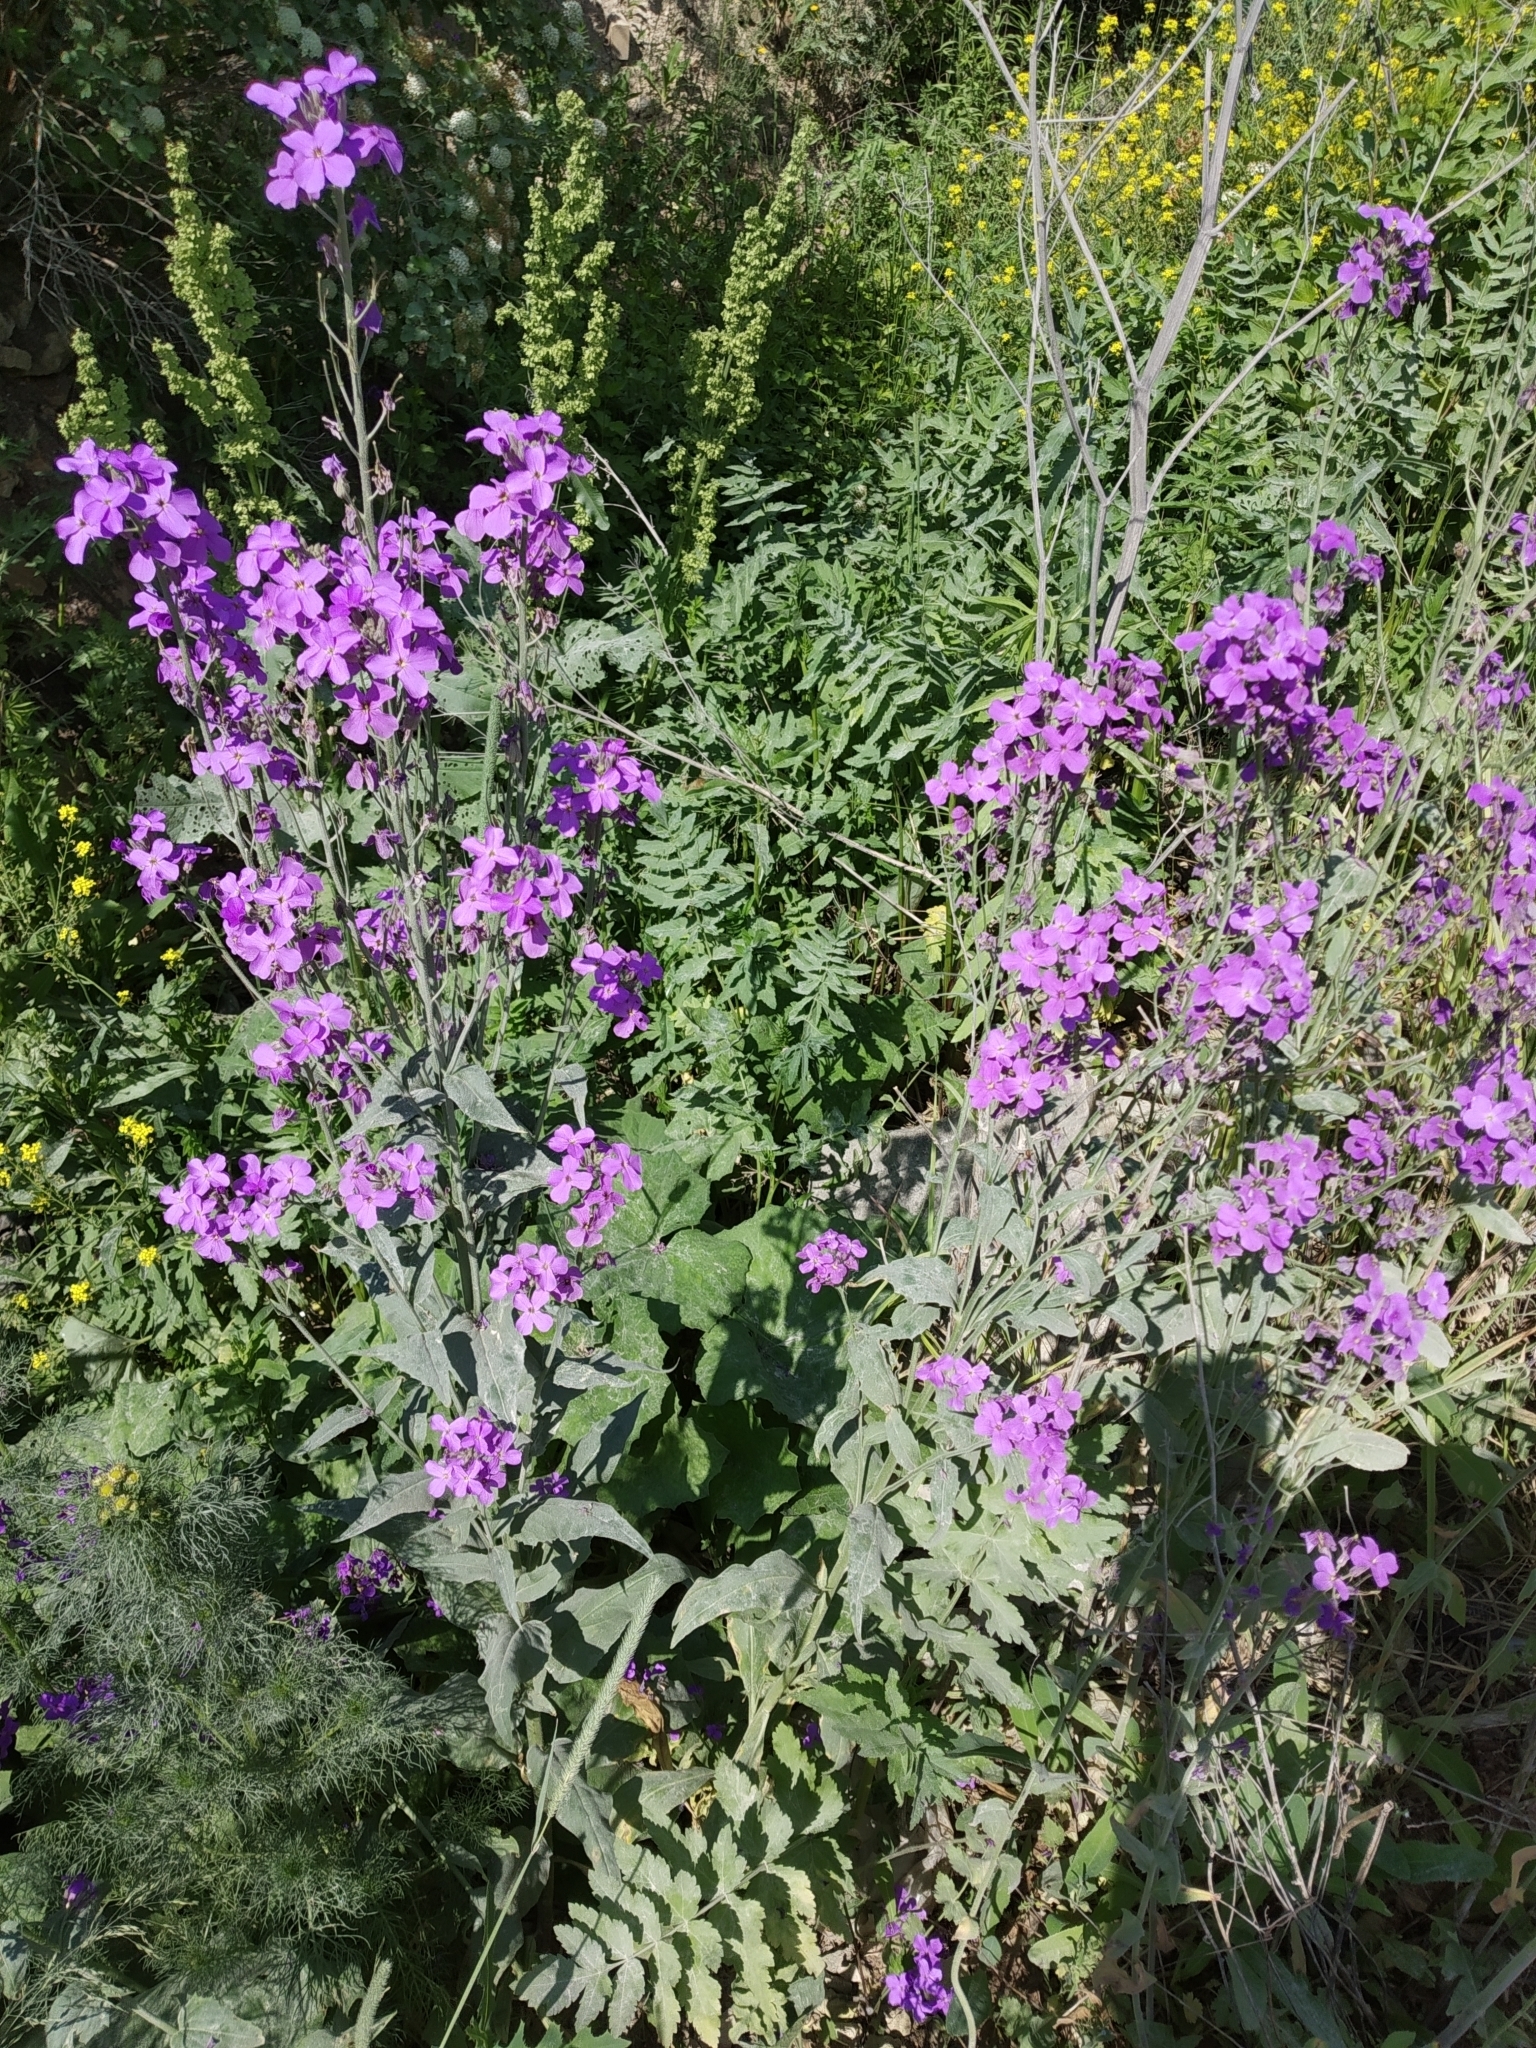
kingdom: Plantae
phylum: Tracheophyta
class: Magnoliopsida
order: Brassicales
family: Brassicaceae
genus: Hesperis
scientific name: Hesperis
